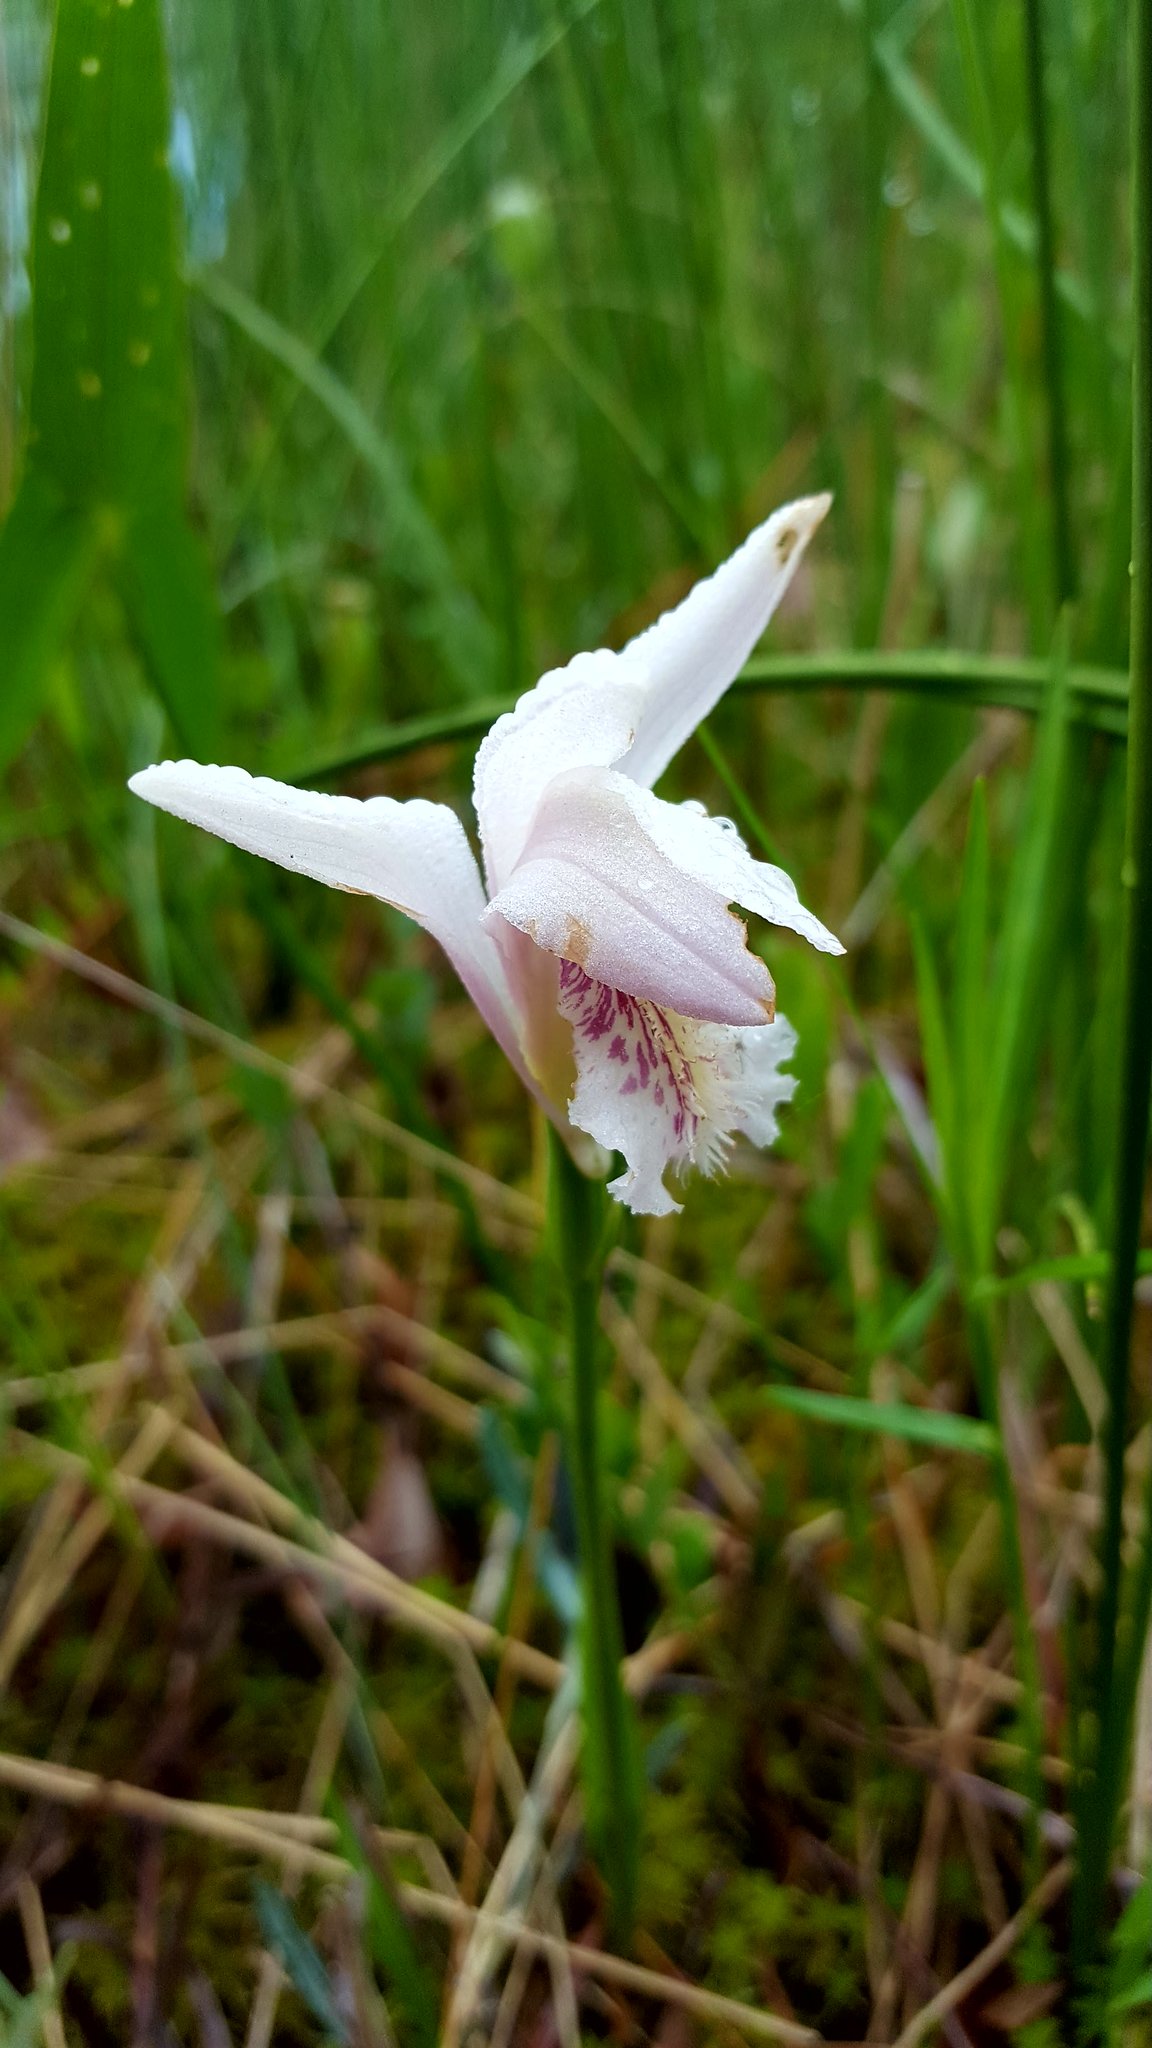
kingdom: Plantae
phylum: Tracheophyta
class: Liliopsida
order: Asparagales
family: Orchidaceae
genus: Arethusa
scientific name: Arethusa bulbosa
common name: Arethusa
